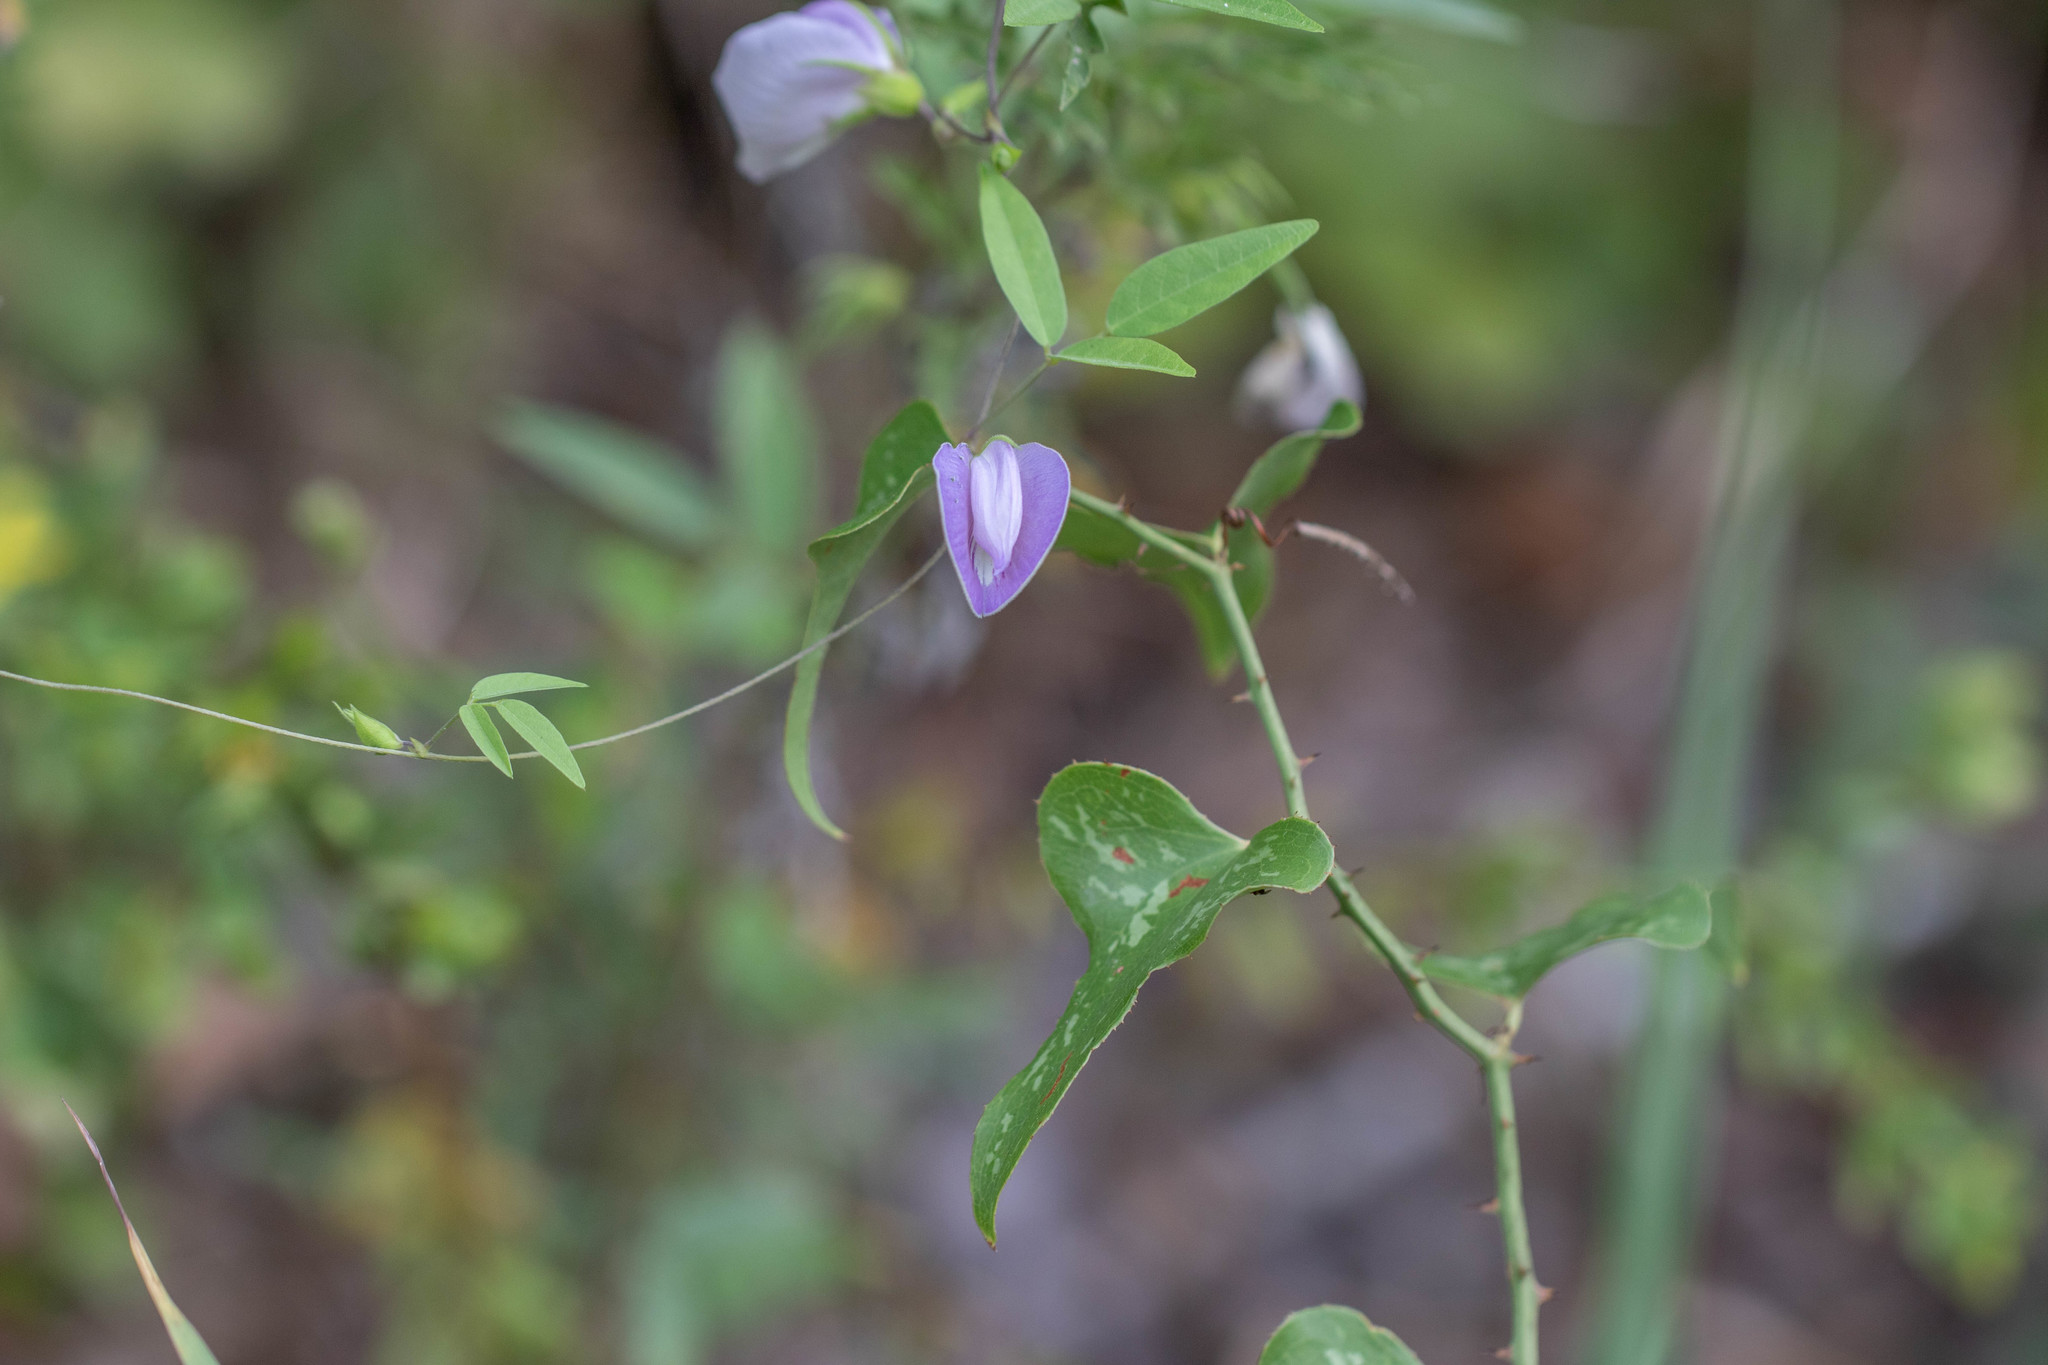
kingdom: Plantae
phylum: Tracheophyta
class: Magnoliopsida
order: Fabales
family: Fabaceae
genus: Centrosema
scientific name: Centrosema virginianum
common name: Butterfly-pea
